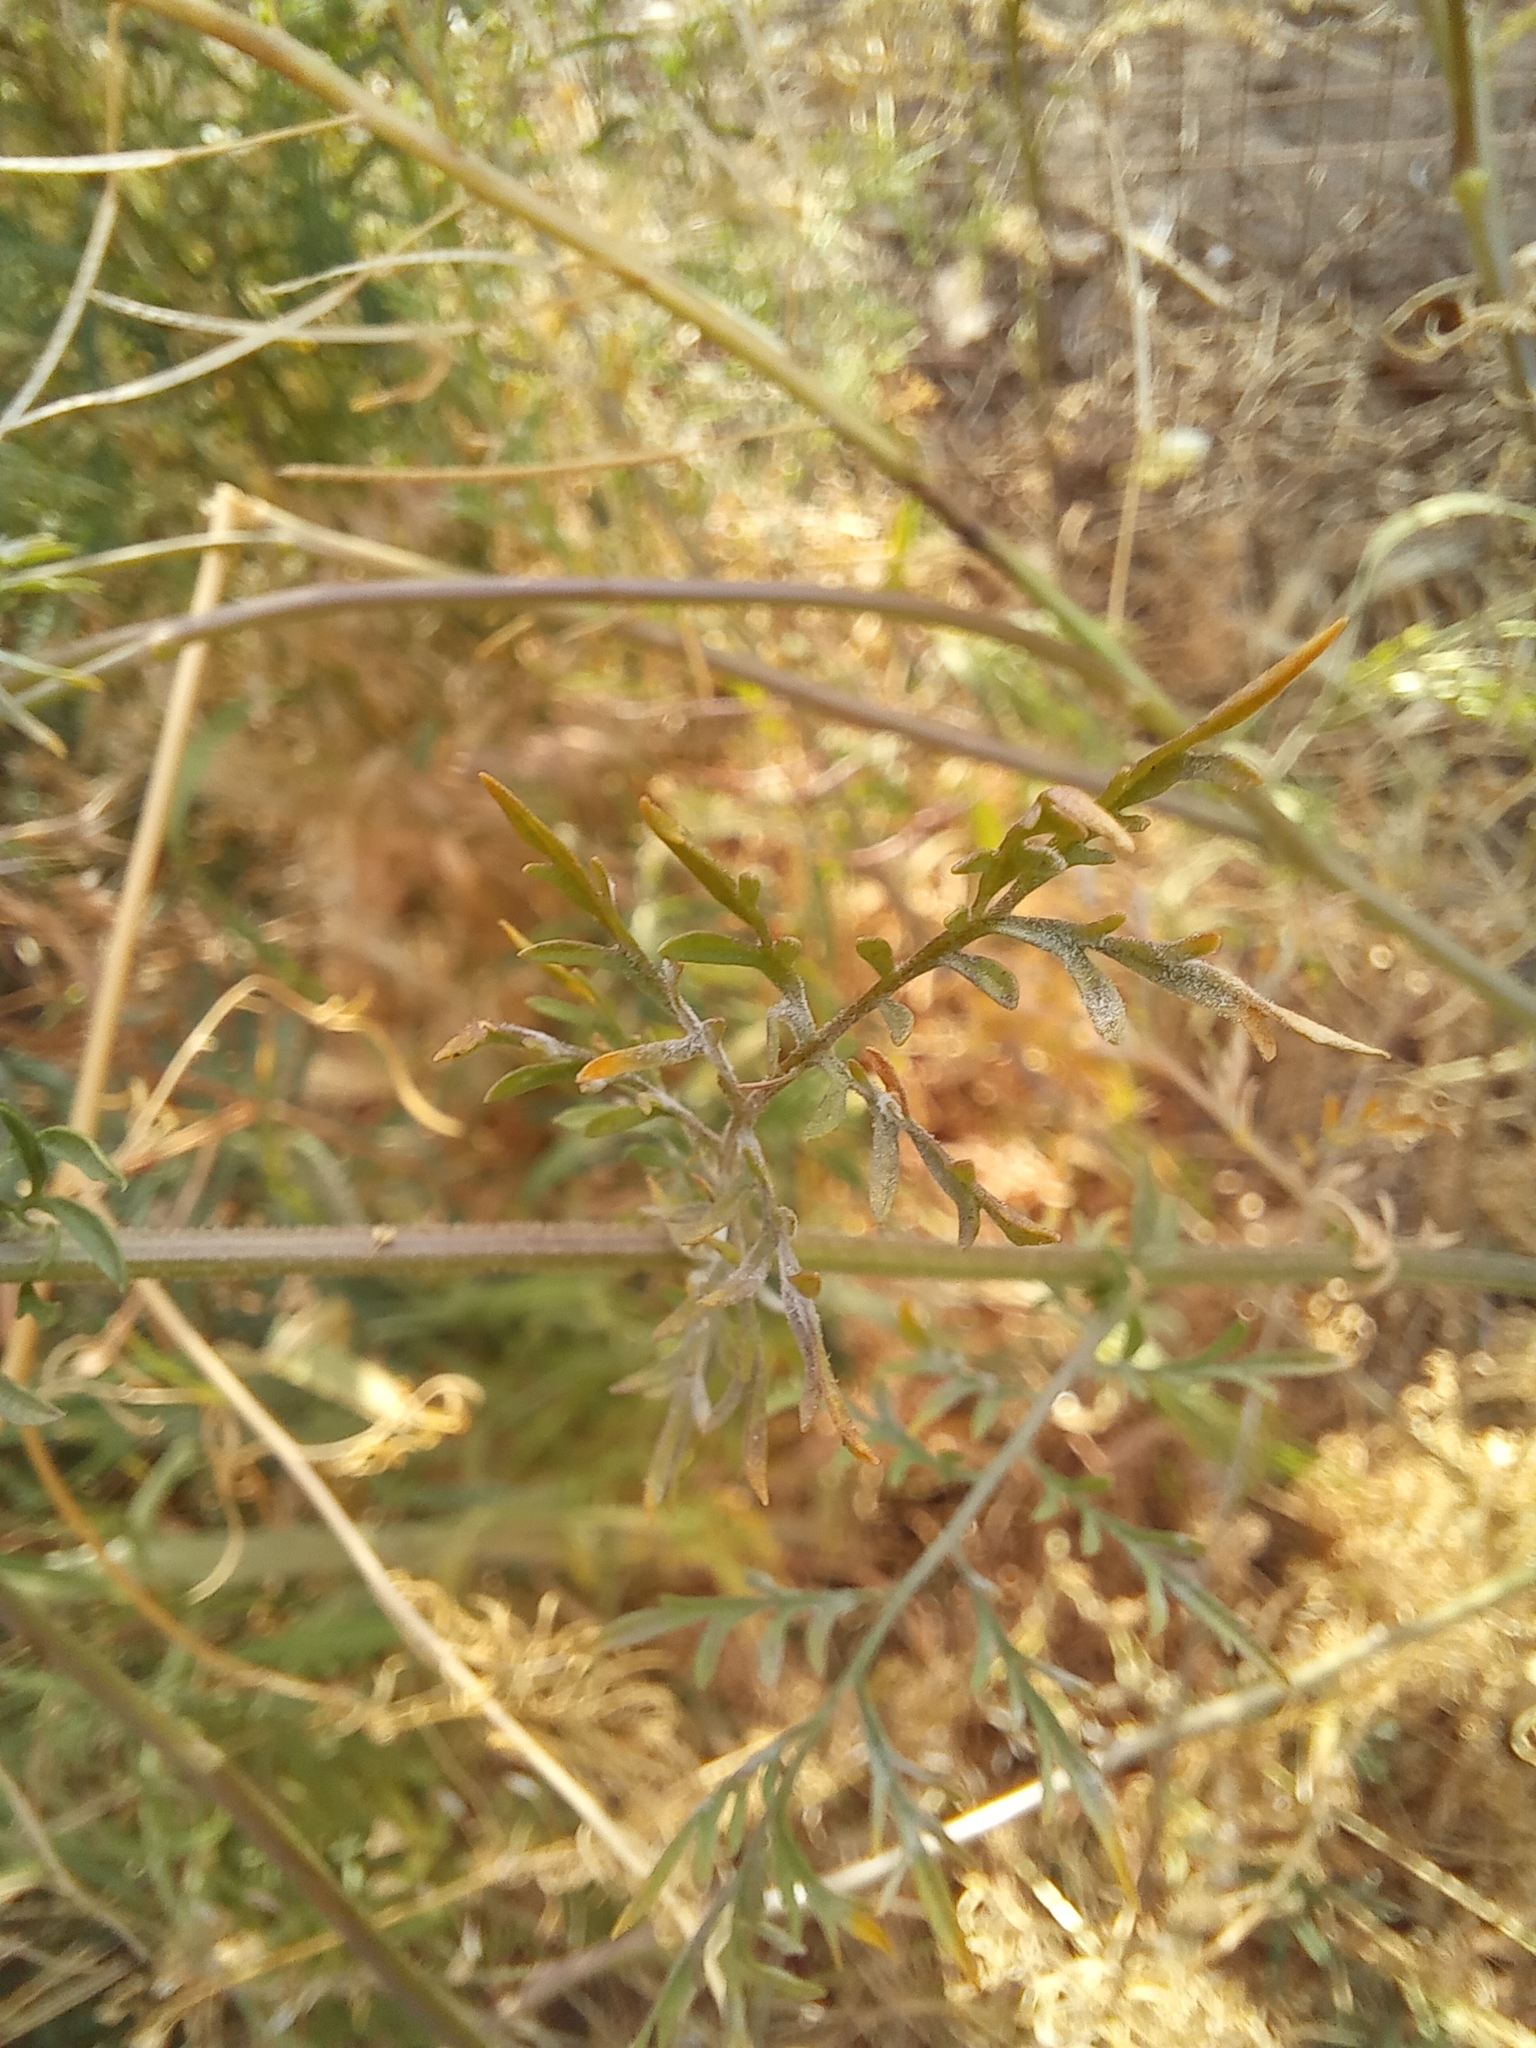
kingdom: Plantae
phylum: Tracheophyta
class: Magnoliopsida
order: Brassicales
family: Brassicaceae
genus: Descurainia
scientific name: Descurainia sophia
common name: Flixweed
